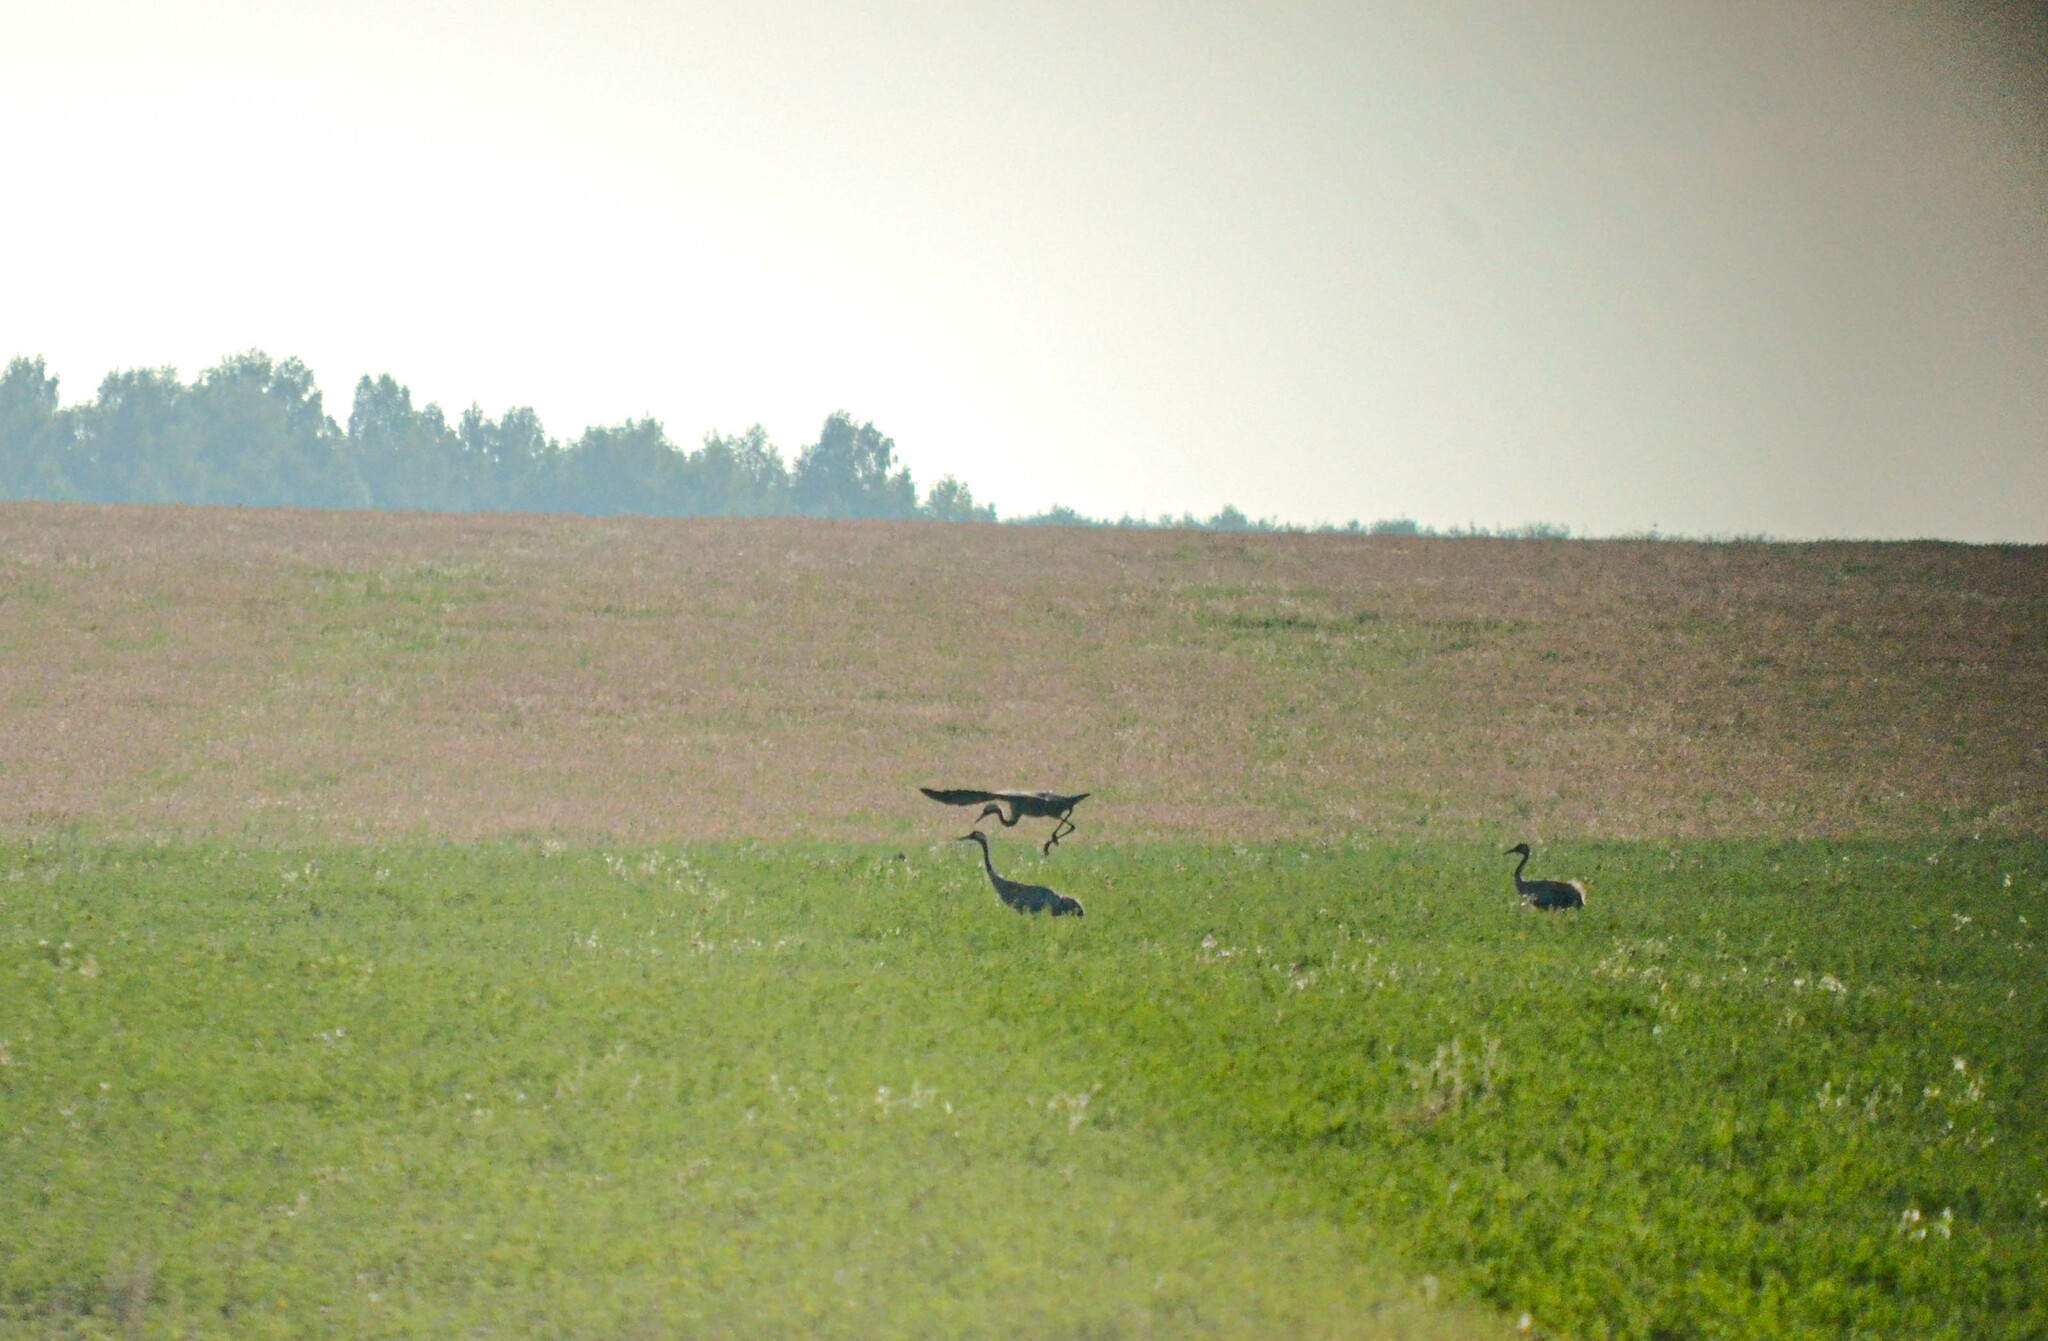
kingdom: Animalia
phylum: Chordata
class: Aves
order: Gruiformes
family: Gruidae
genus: Grus
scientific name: Grus grus
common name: Common crane
